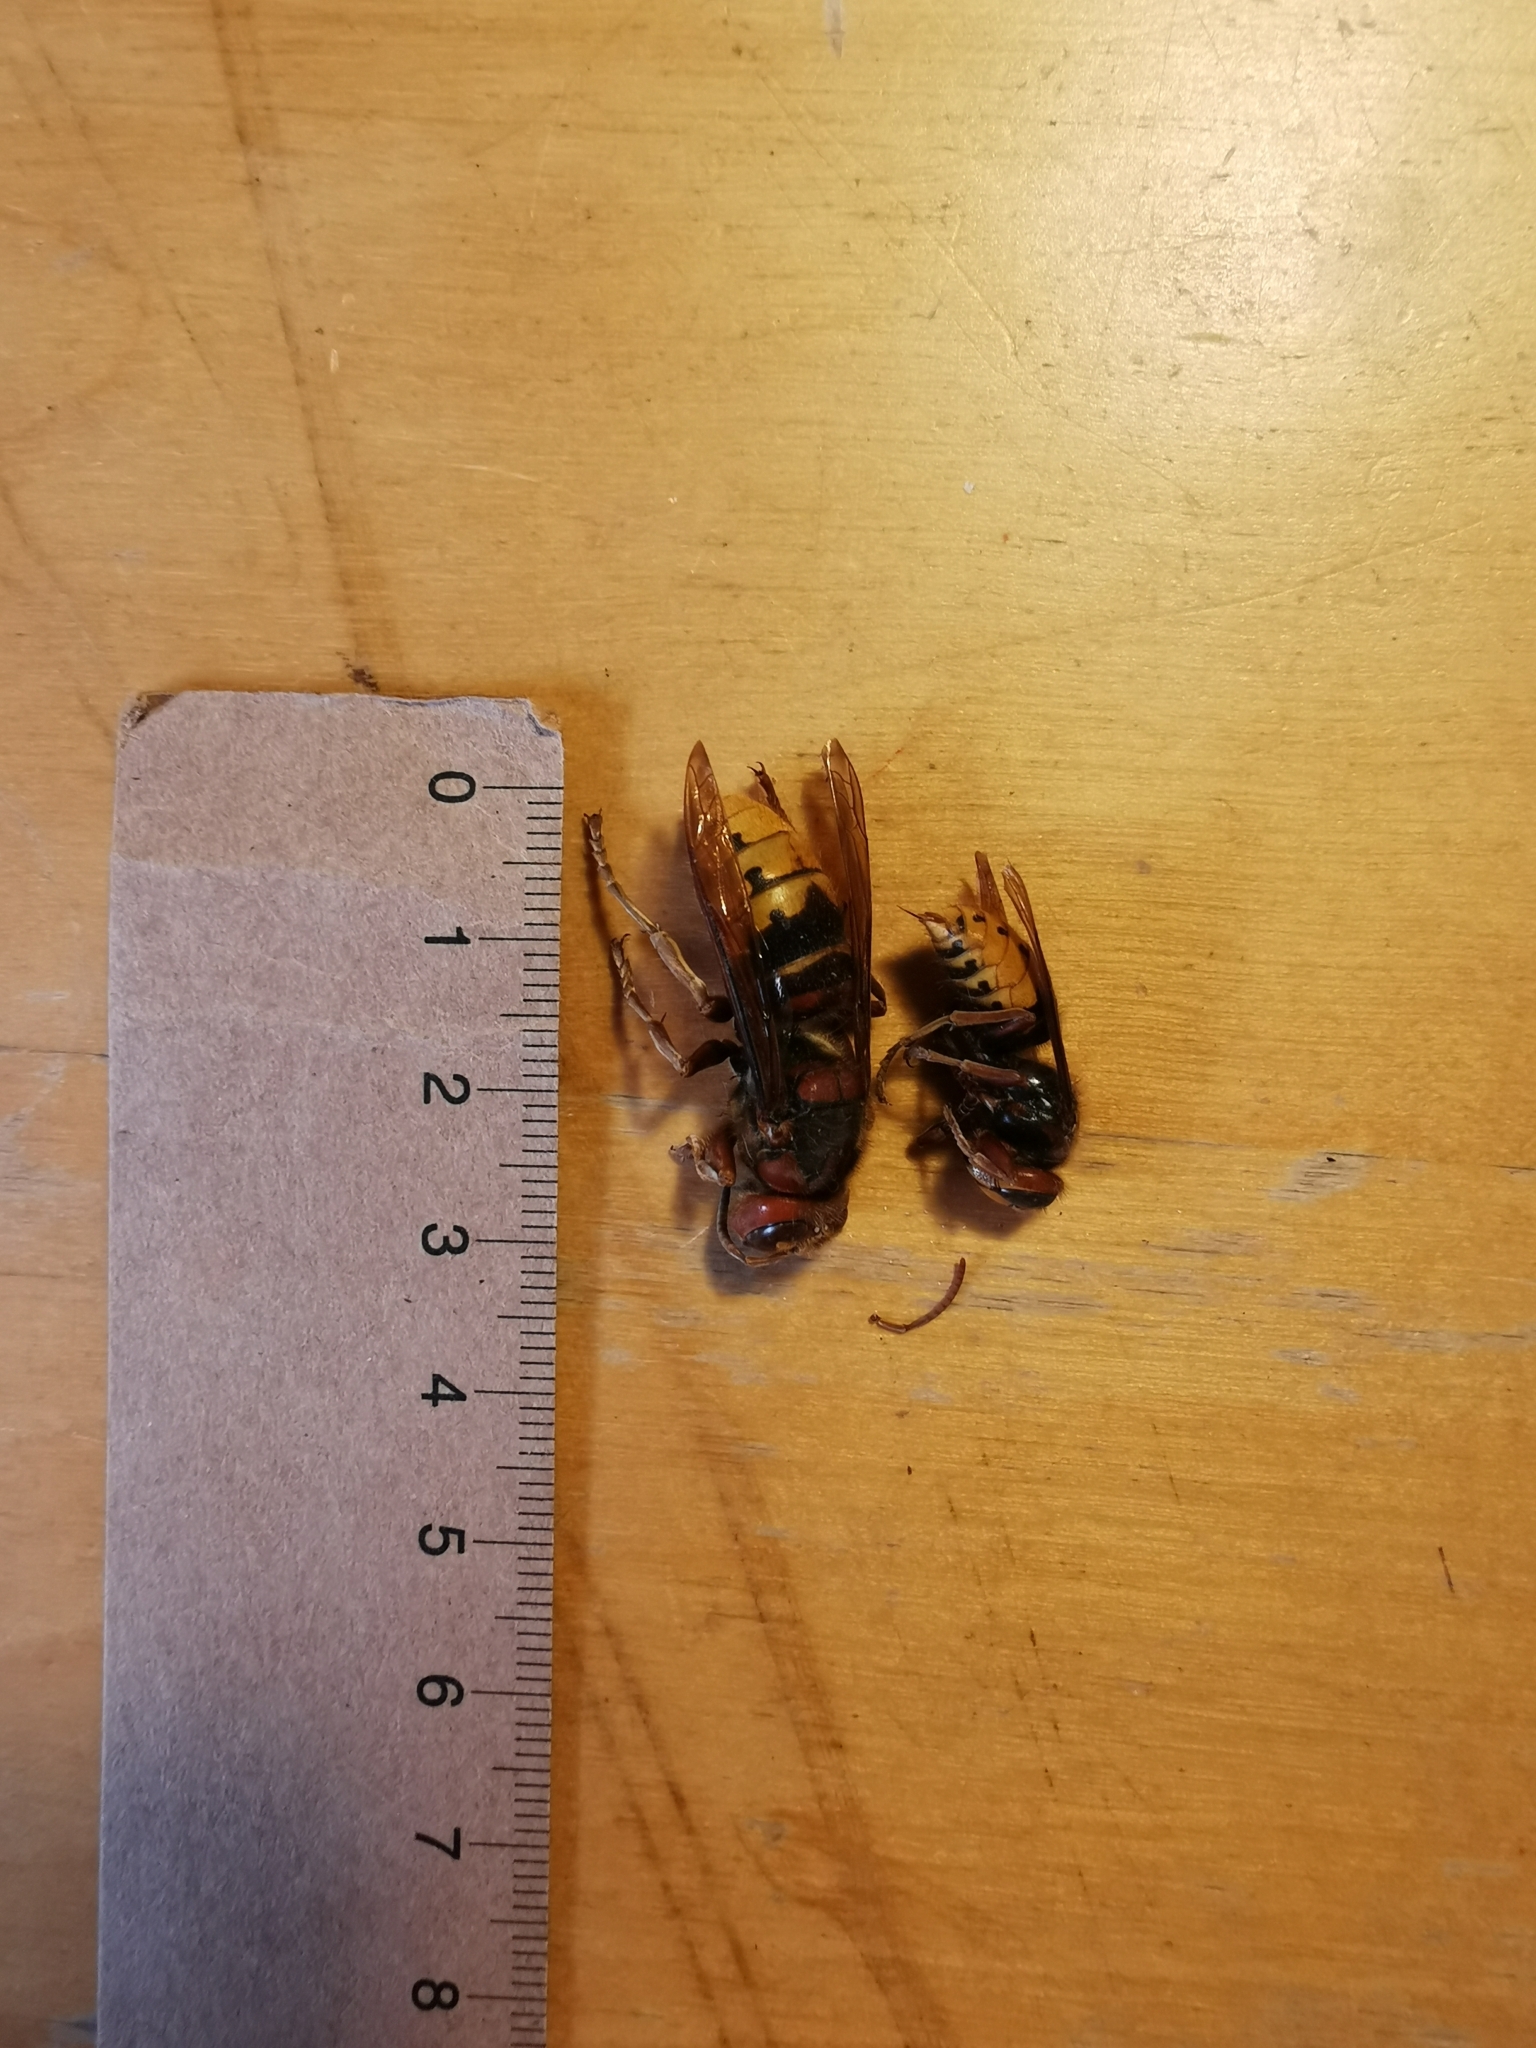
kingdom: Animalia
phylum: Arthropoda
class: Insecta
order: Hymenoptera
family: Vespidae
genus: Vespa
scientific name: Vespa crabro
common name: Hornet
